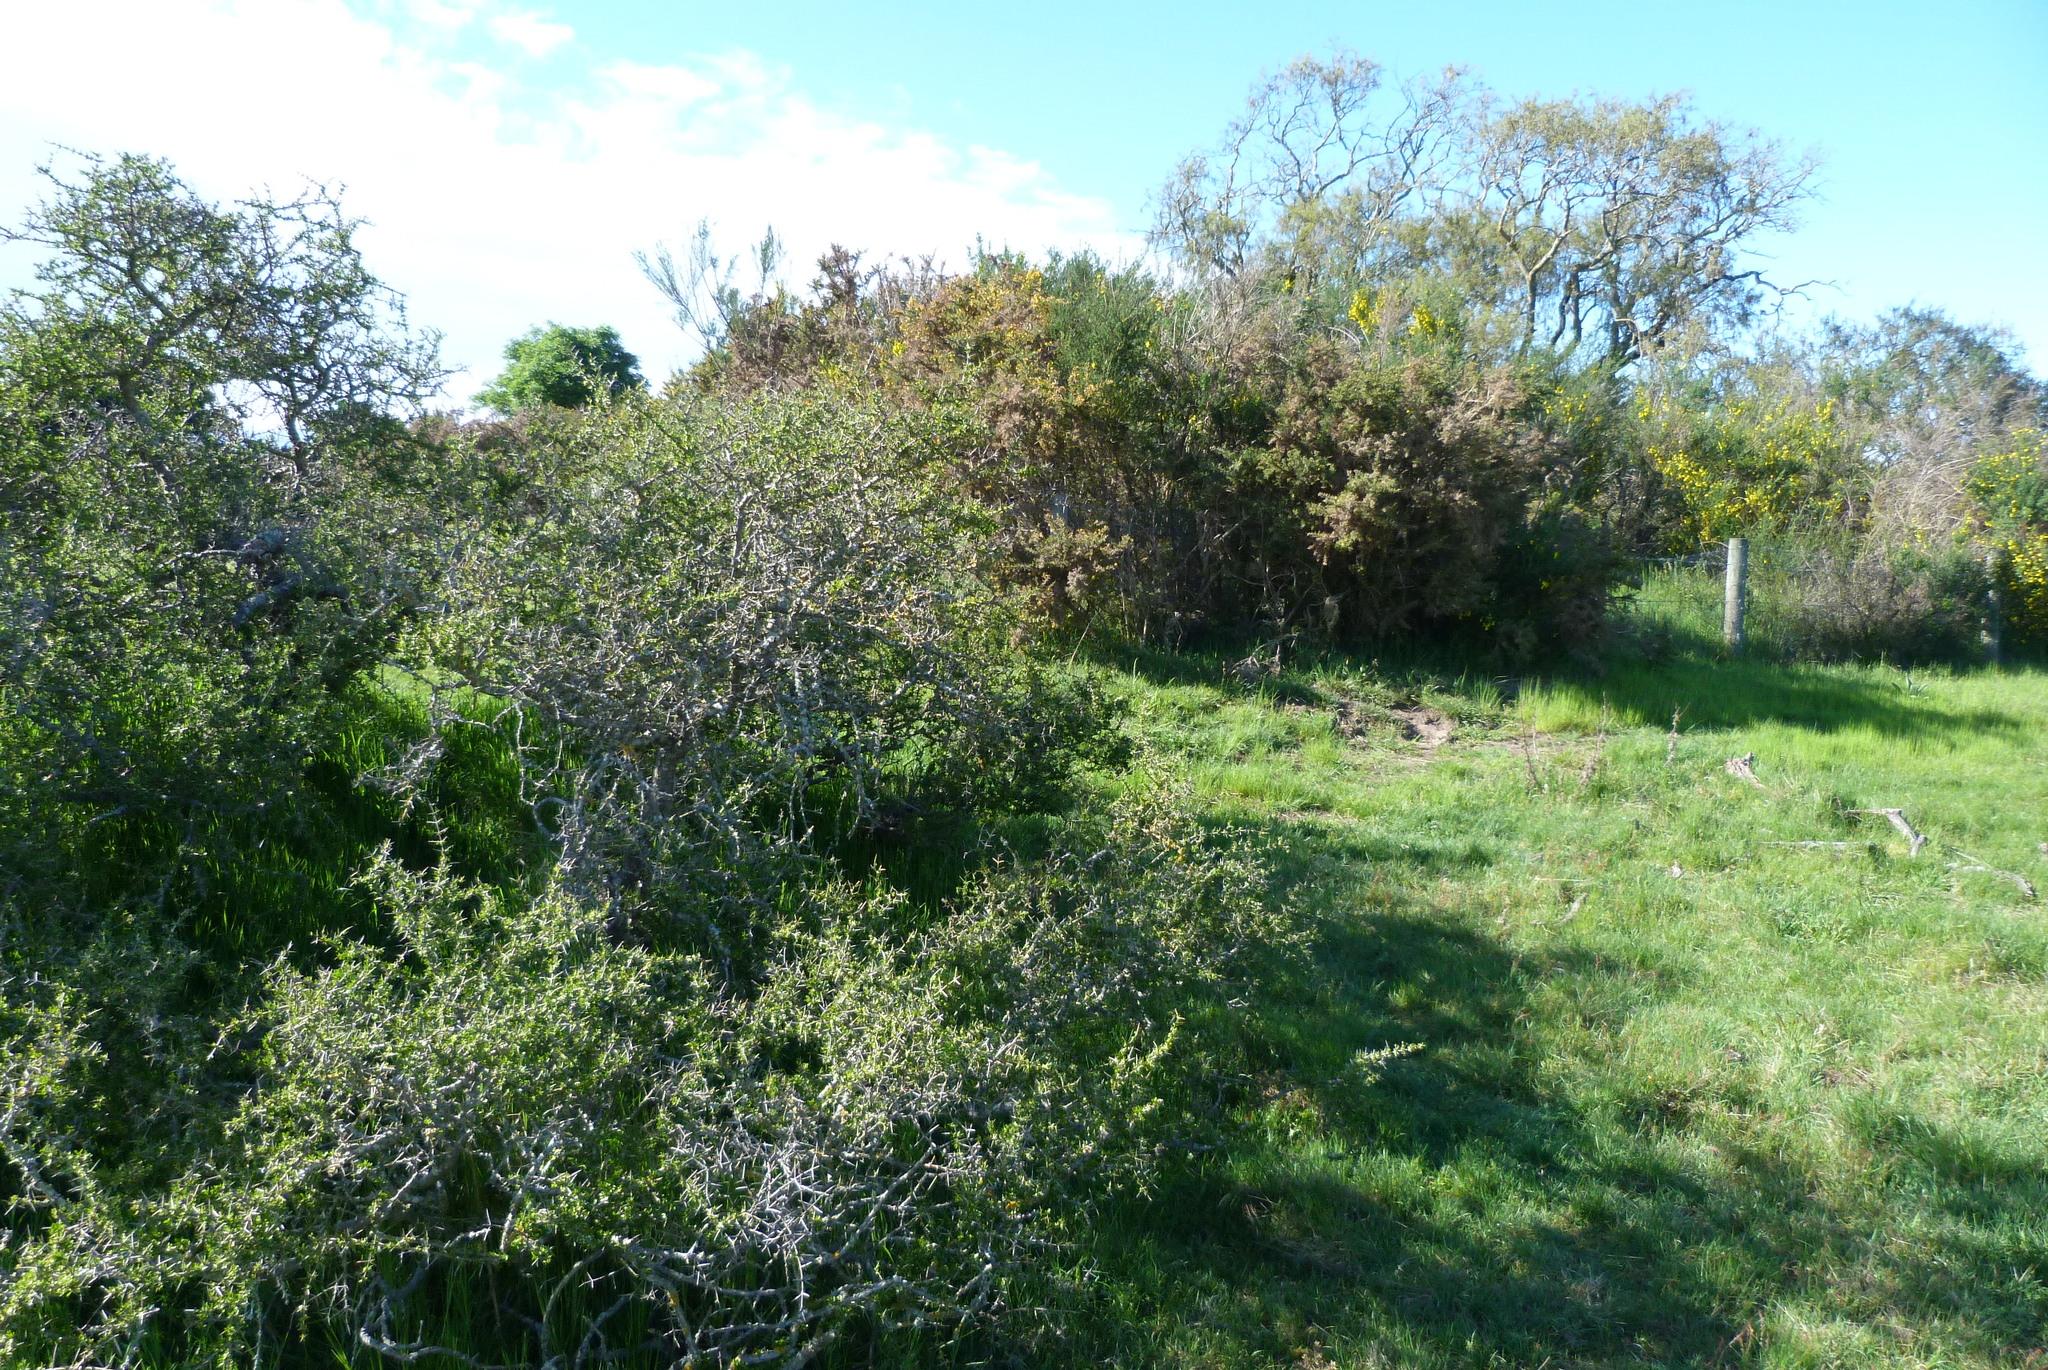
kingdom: Plantae
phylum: Tracheophyta
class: Magnoliopsida
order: Rosales
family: Rhamnaceae
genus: Discaria
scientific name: Discaria toumatou
